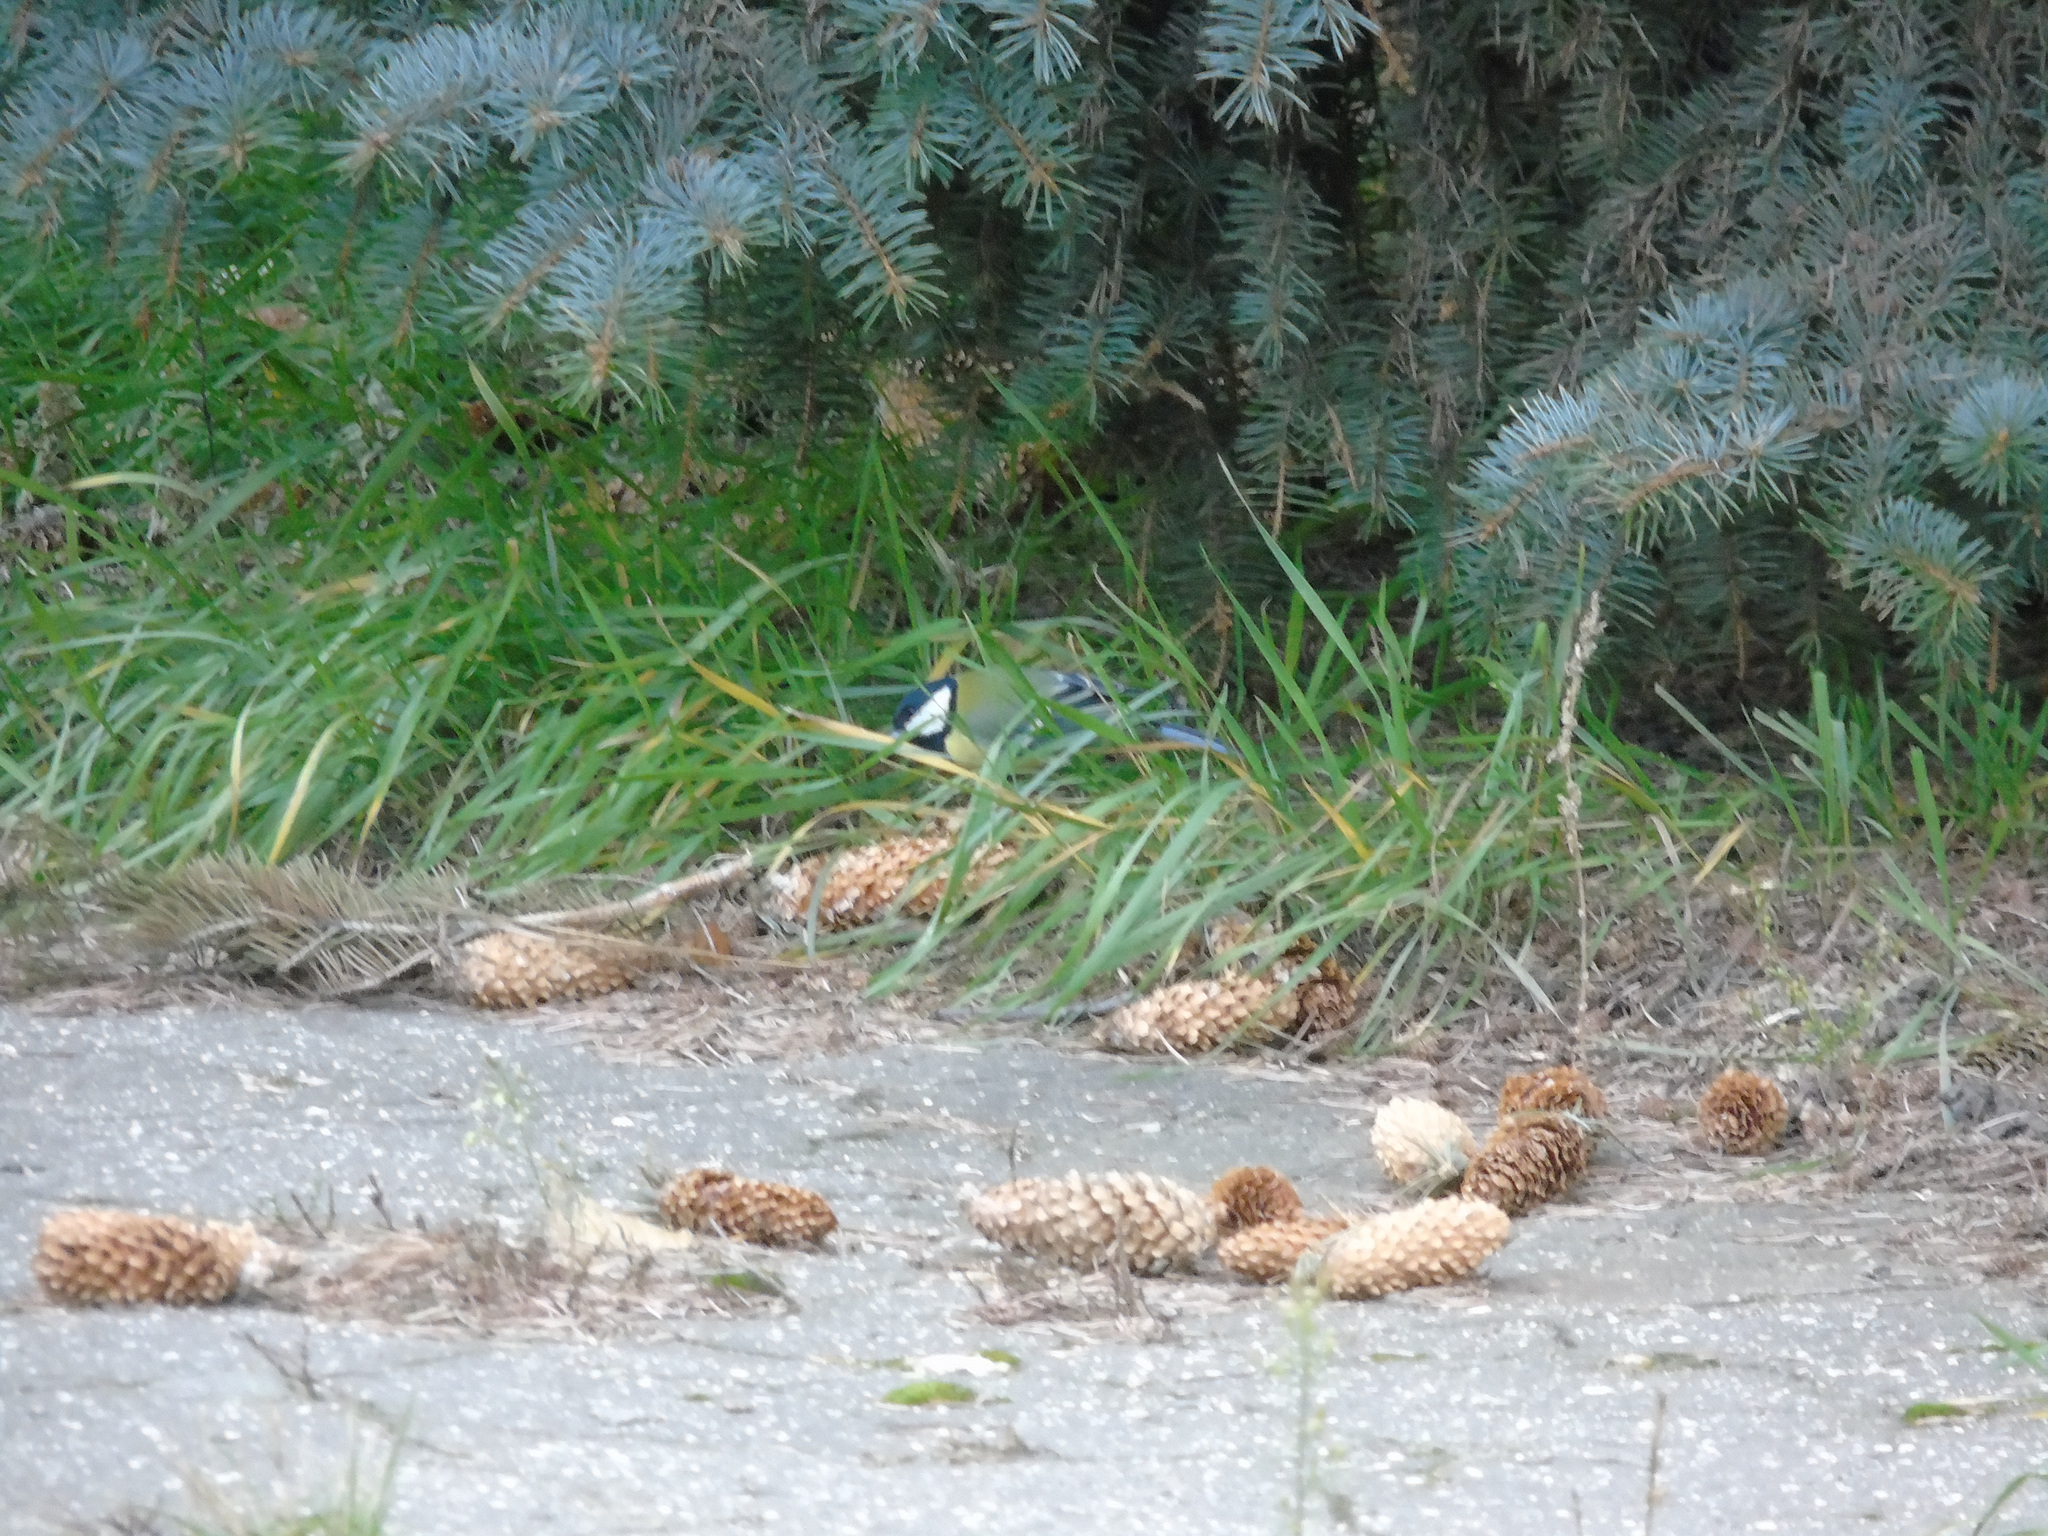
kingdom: Animalia
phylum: Chordata
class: Aves
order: Passeriformes
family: Paridae
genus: Parus
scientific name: Parus major
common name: Great tit
